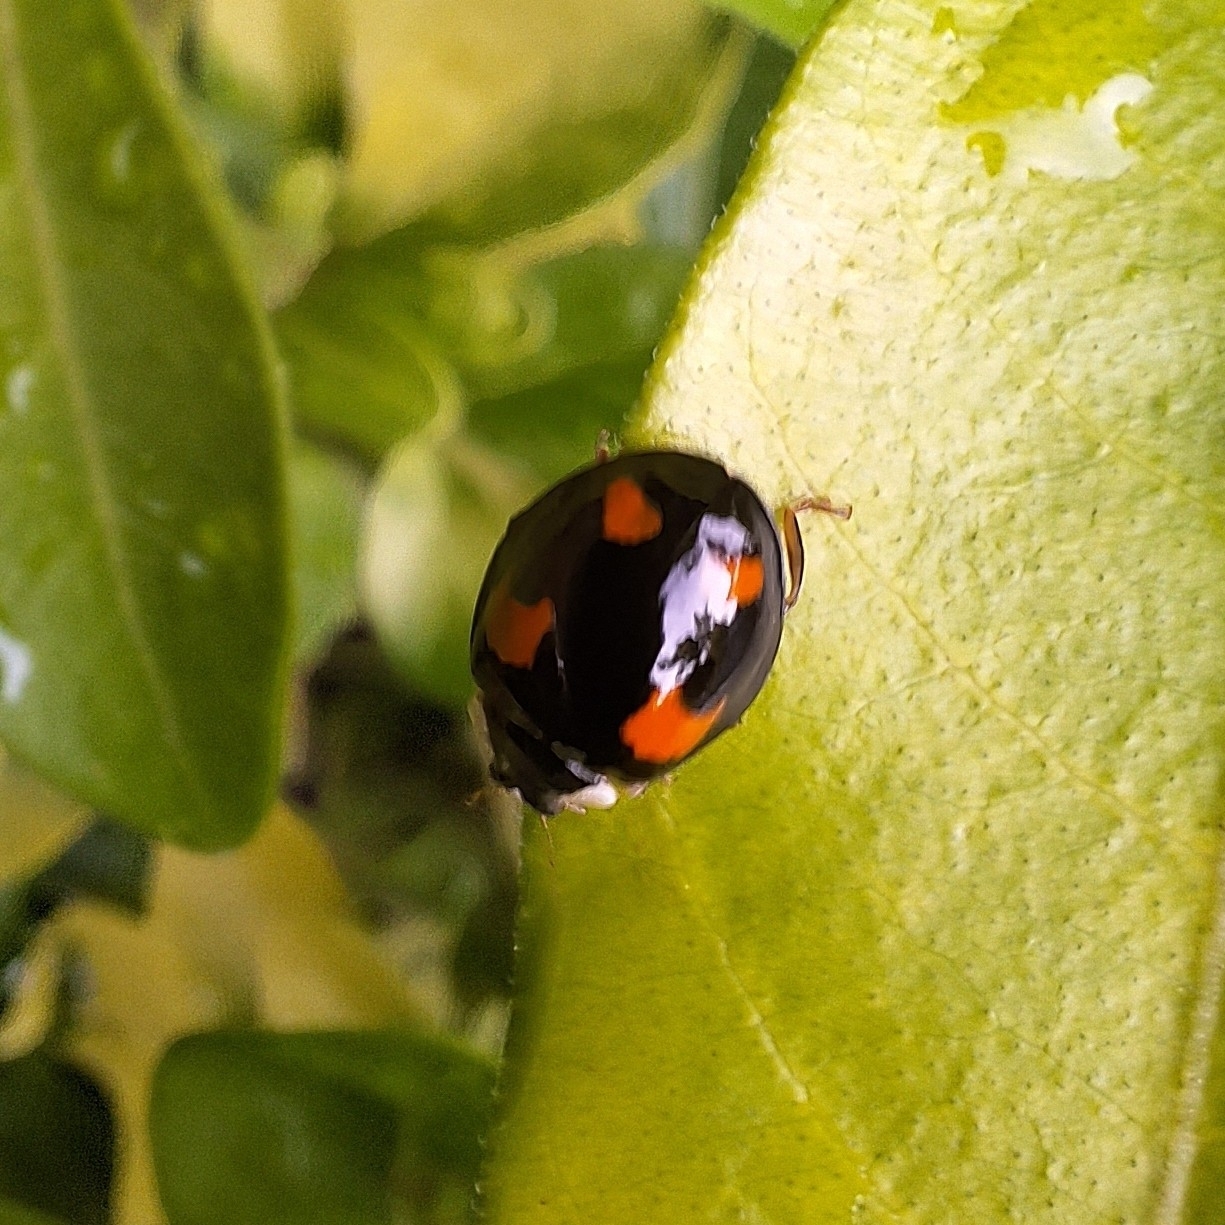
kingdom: Animalia
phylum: Arthropoda
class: Insecta
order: Coleoptera
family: Coccinellidae
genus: Harmonia
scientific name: Harmonia axyridis
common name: Harlequin ladybird
